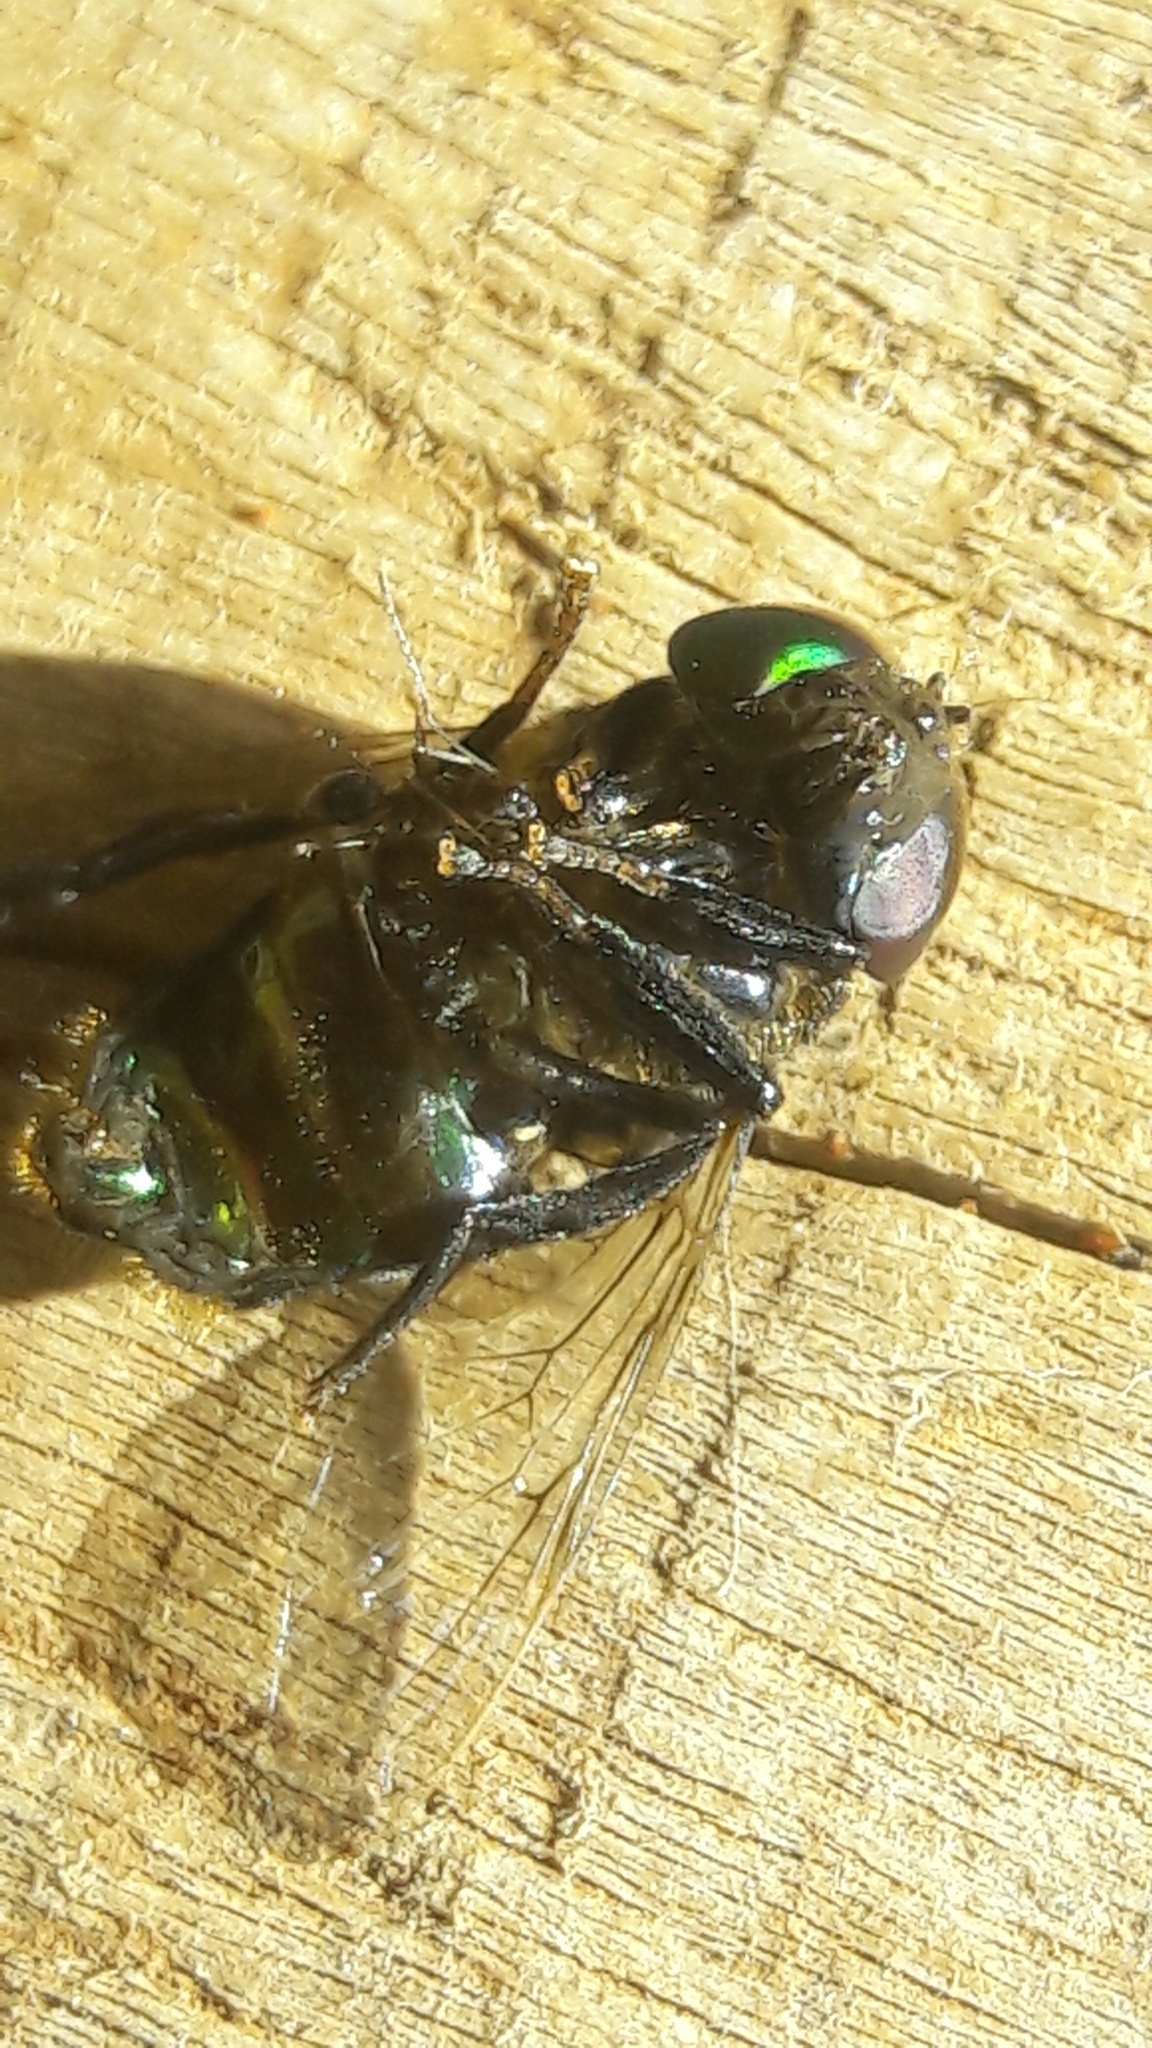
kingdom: Animalia
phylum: Arthropoda
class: Insecta
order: Diptera
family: Syrphidae
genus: Ornidia
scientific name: Ornidia obesa
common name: Syrphid fly
